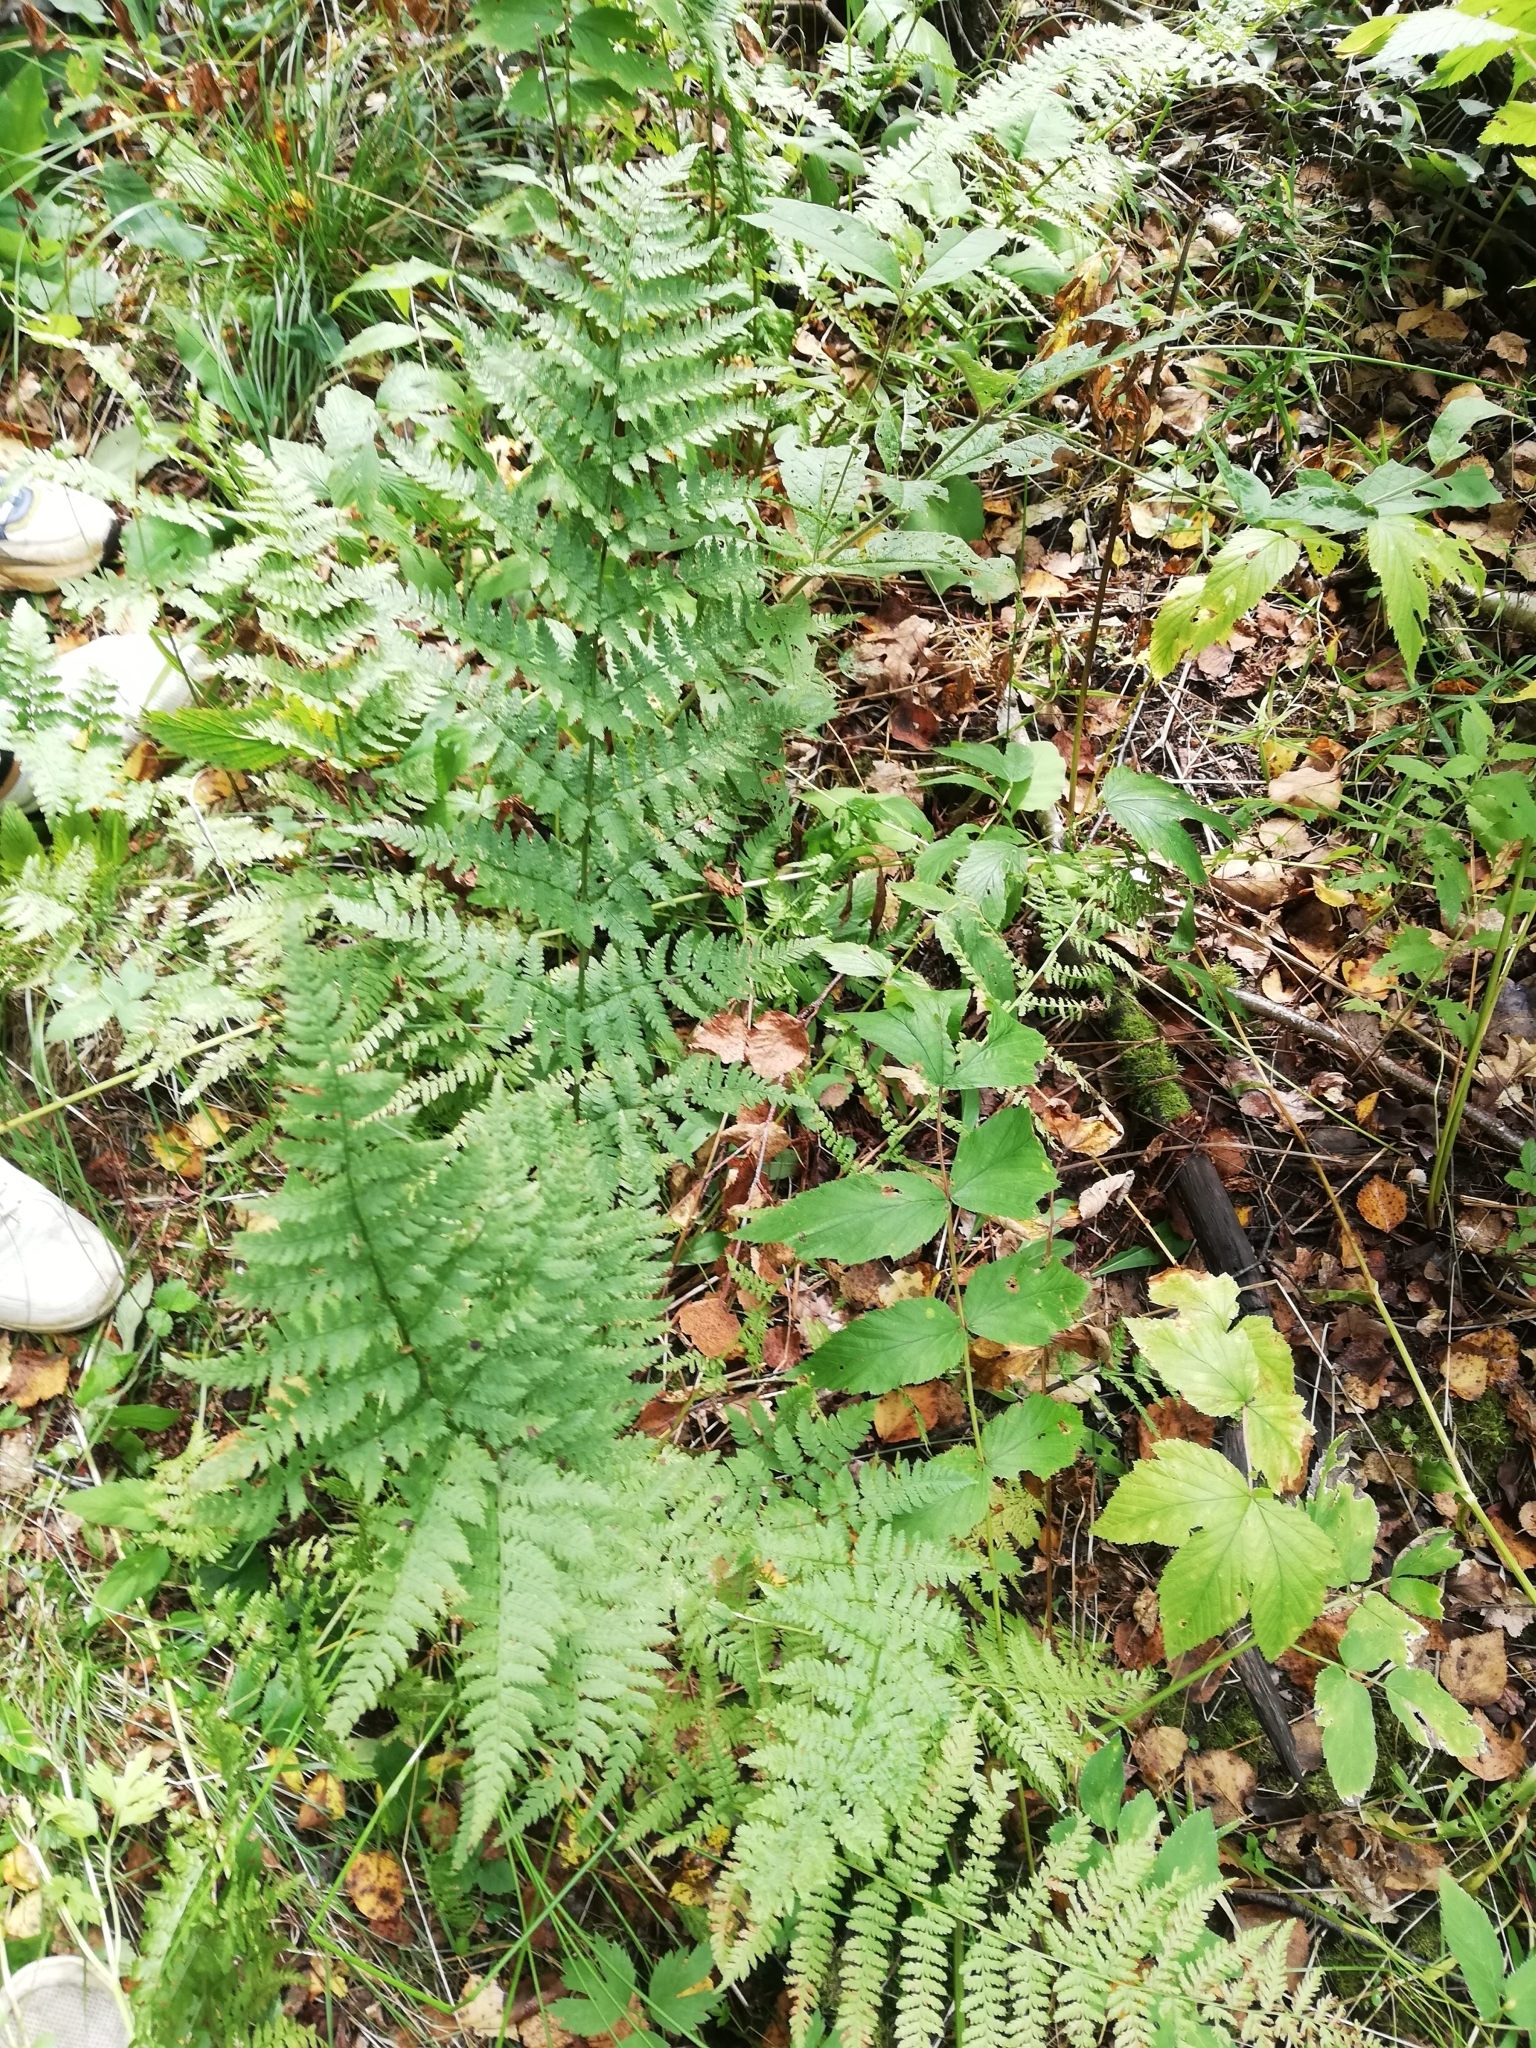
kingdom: Plantae
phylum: Tracheophyta
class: Polypodiopsida
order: Polypodiales
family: Dryopteridaceae
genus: Dryopteris
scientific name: Dryopteris carthusiana
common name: Narrow buckler-fern
